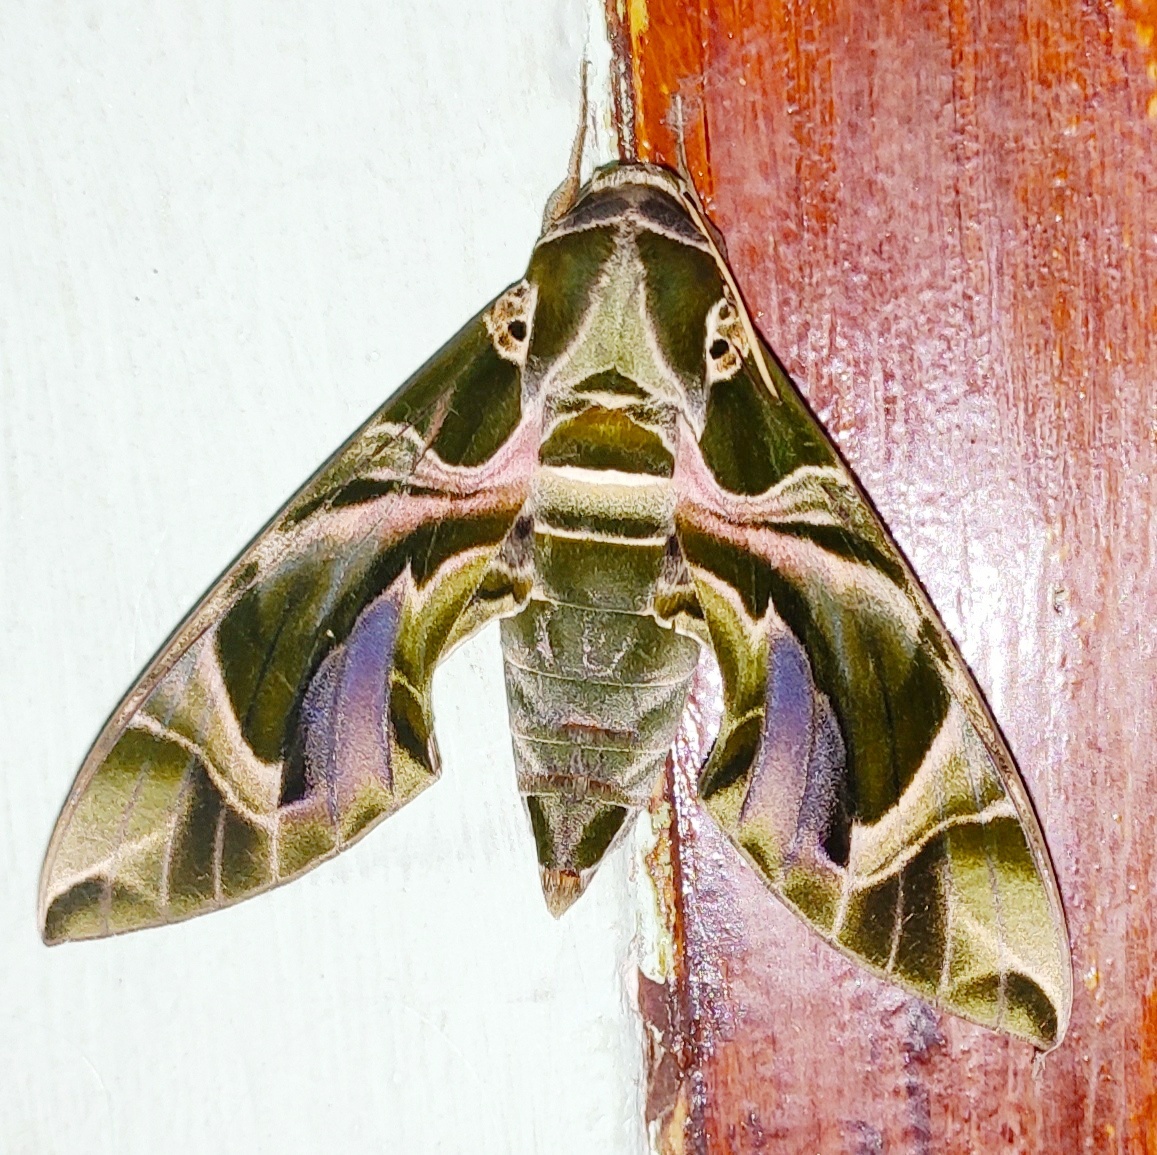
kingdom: Animalia
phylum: Arthropoda
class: Insecta
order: Lepidoptera
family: Sphingidae
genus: Daphnis
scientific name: Daphnis nerii
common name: Oleander hawk-moth
